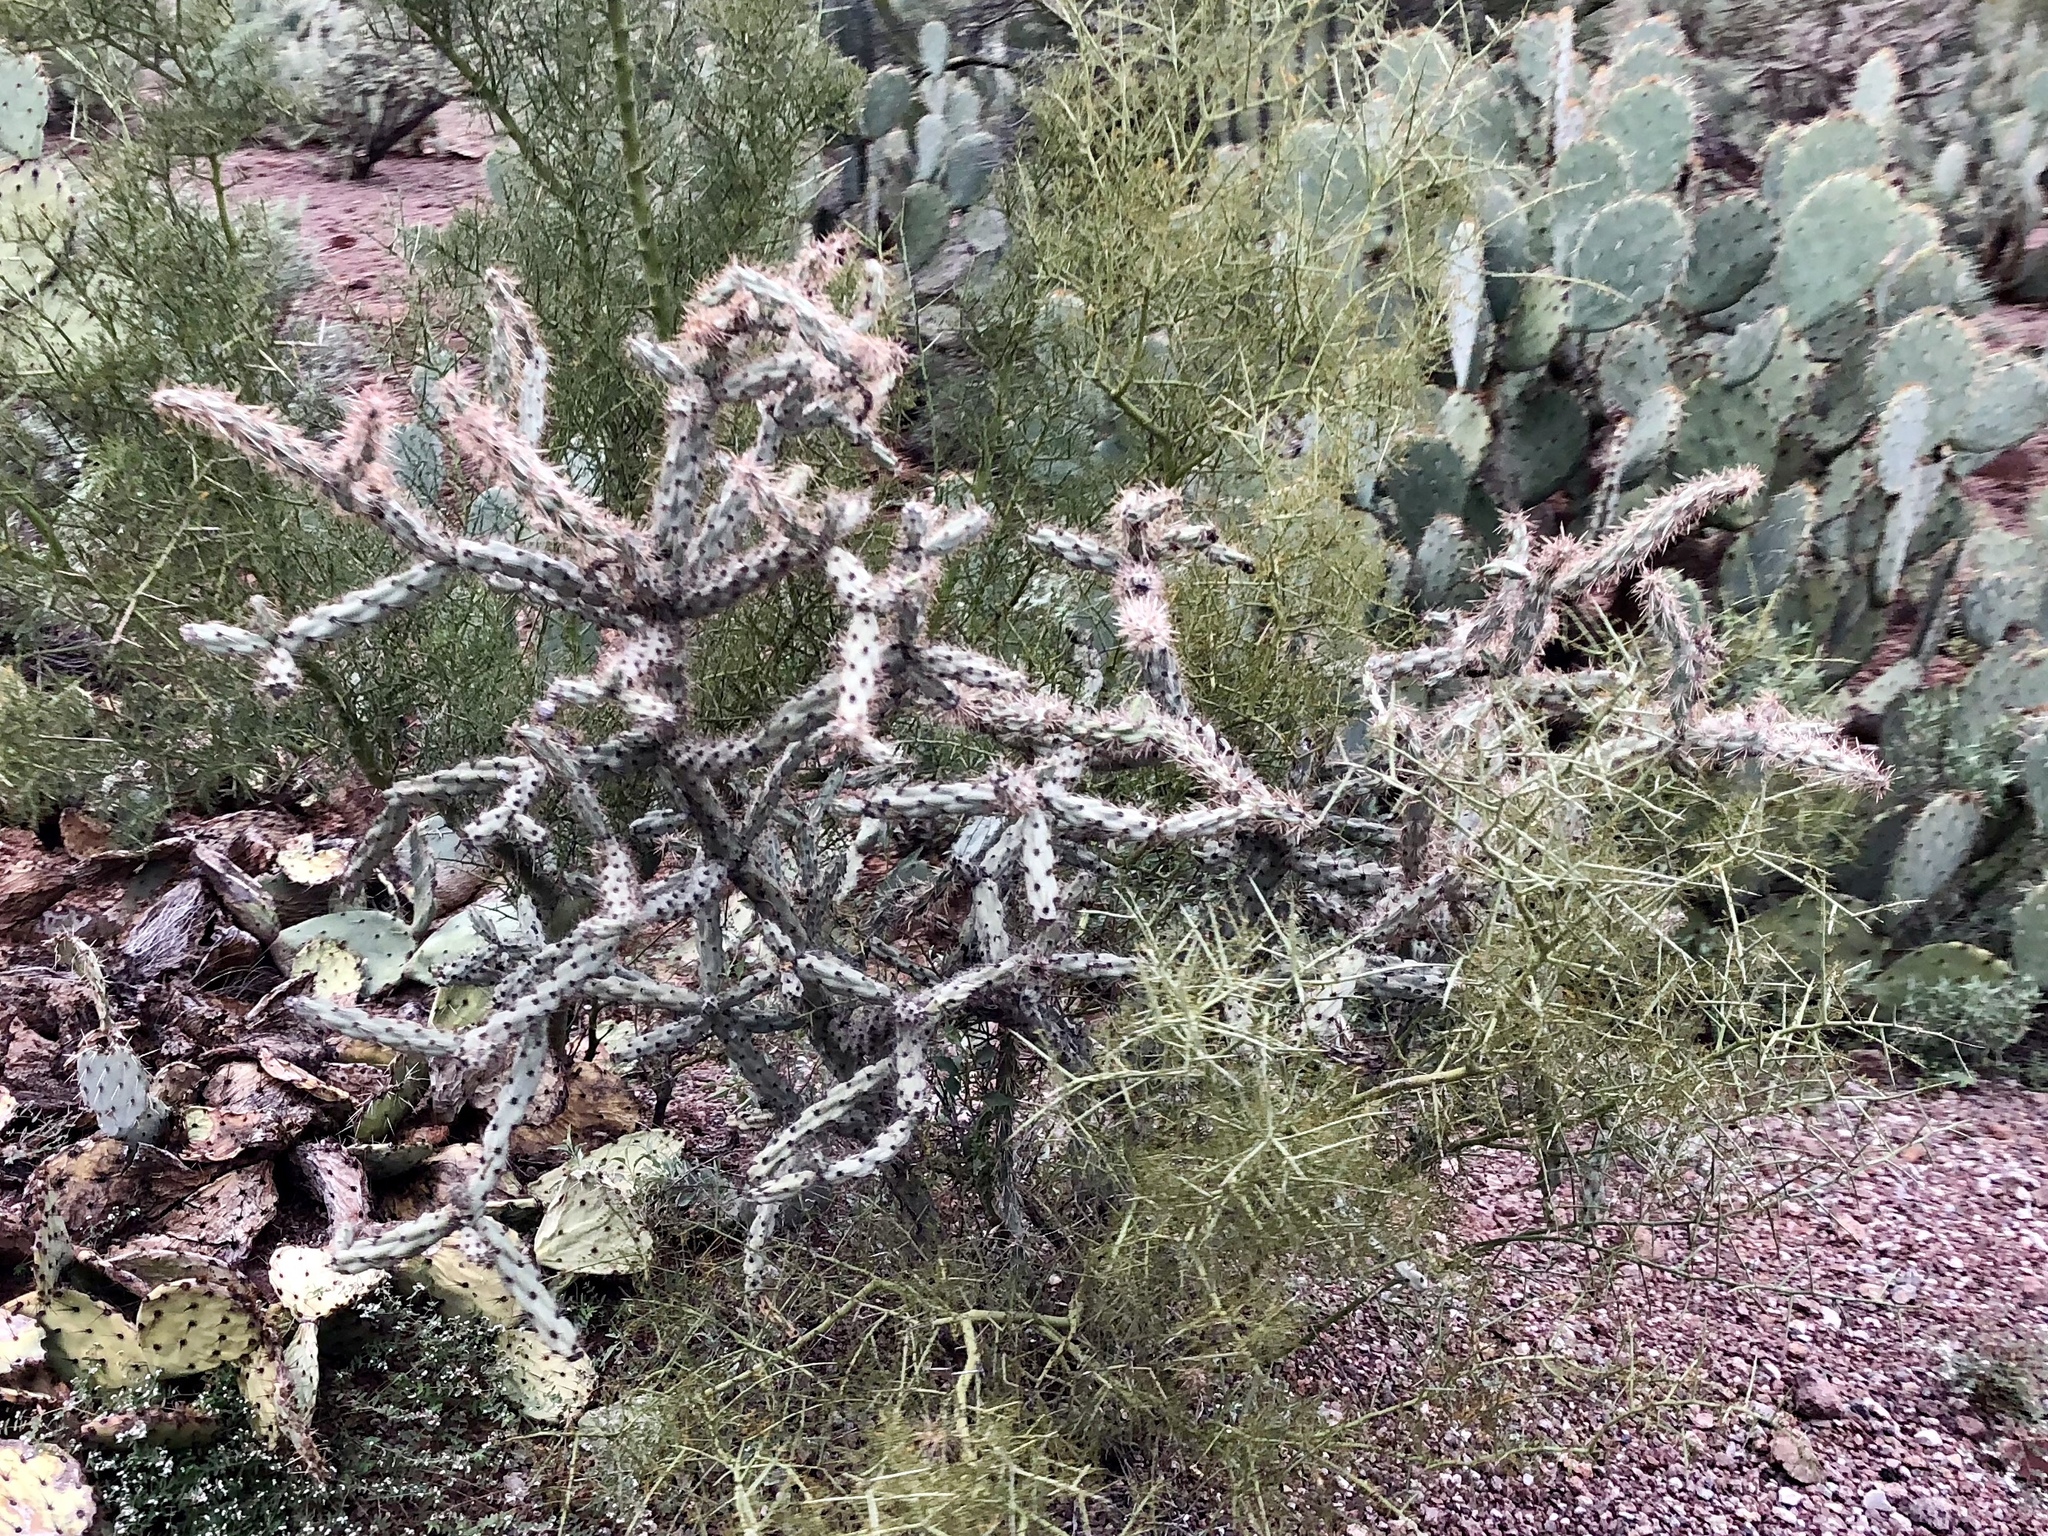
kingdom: Plantae
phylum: Tracheophyta
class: Magnoliopsida
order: Caryophyllales
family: Cactaceae
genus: Cylindropuntia
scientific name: Cylindropuntia thurberi
